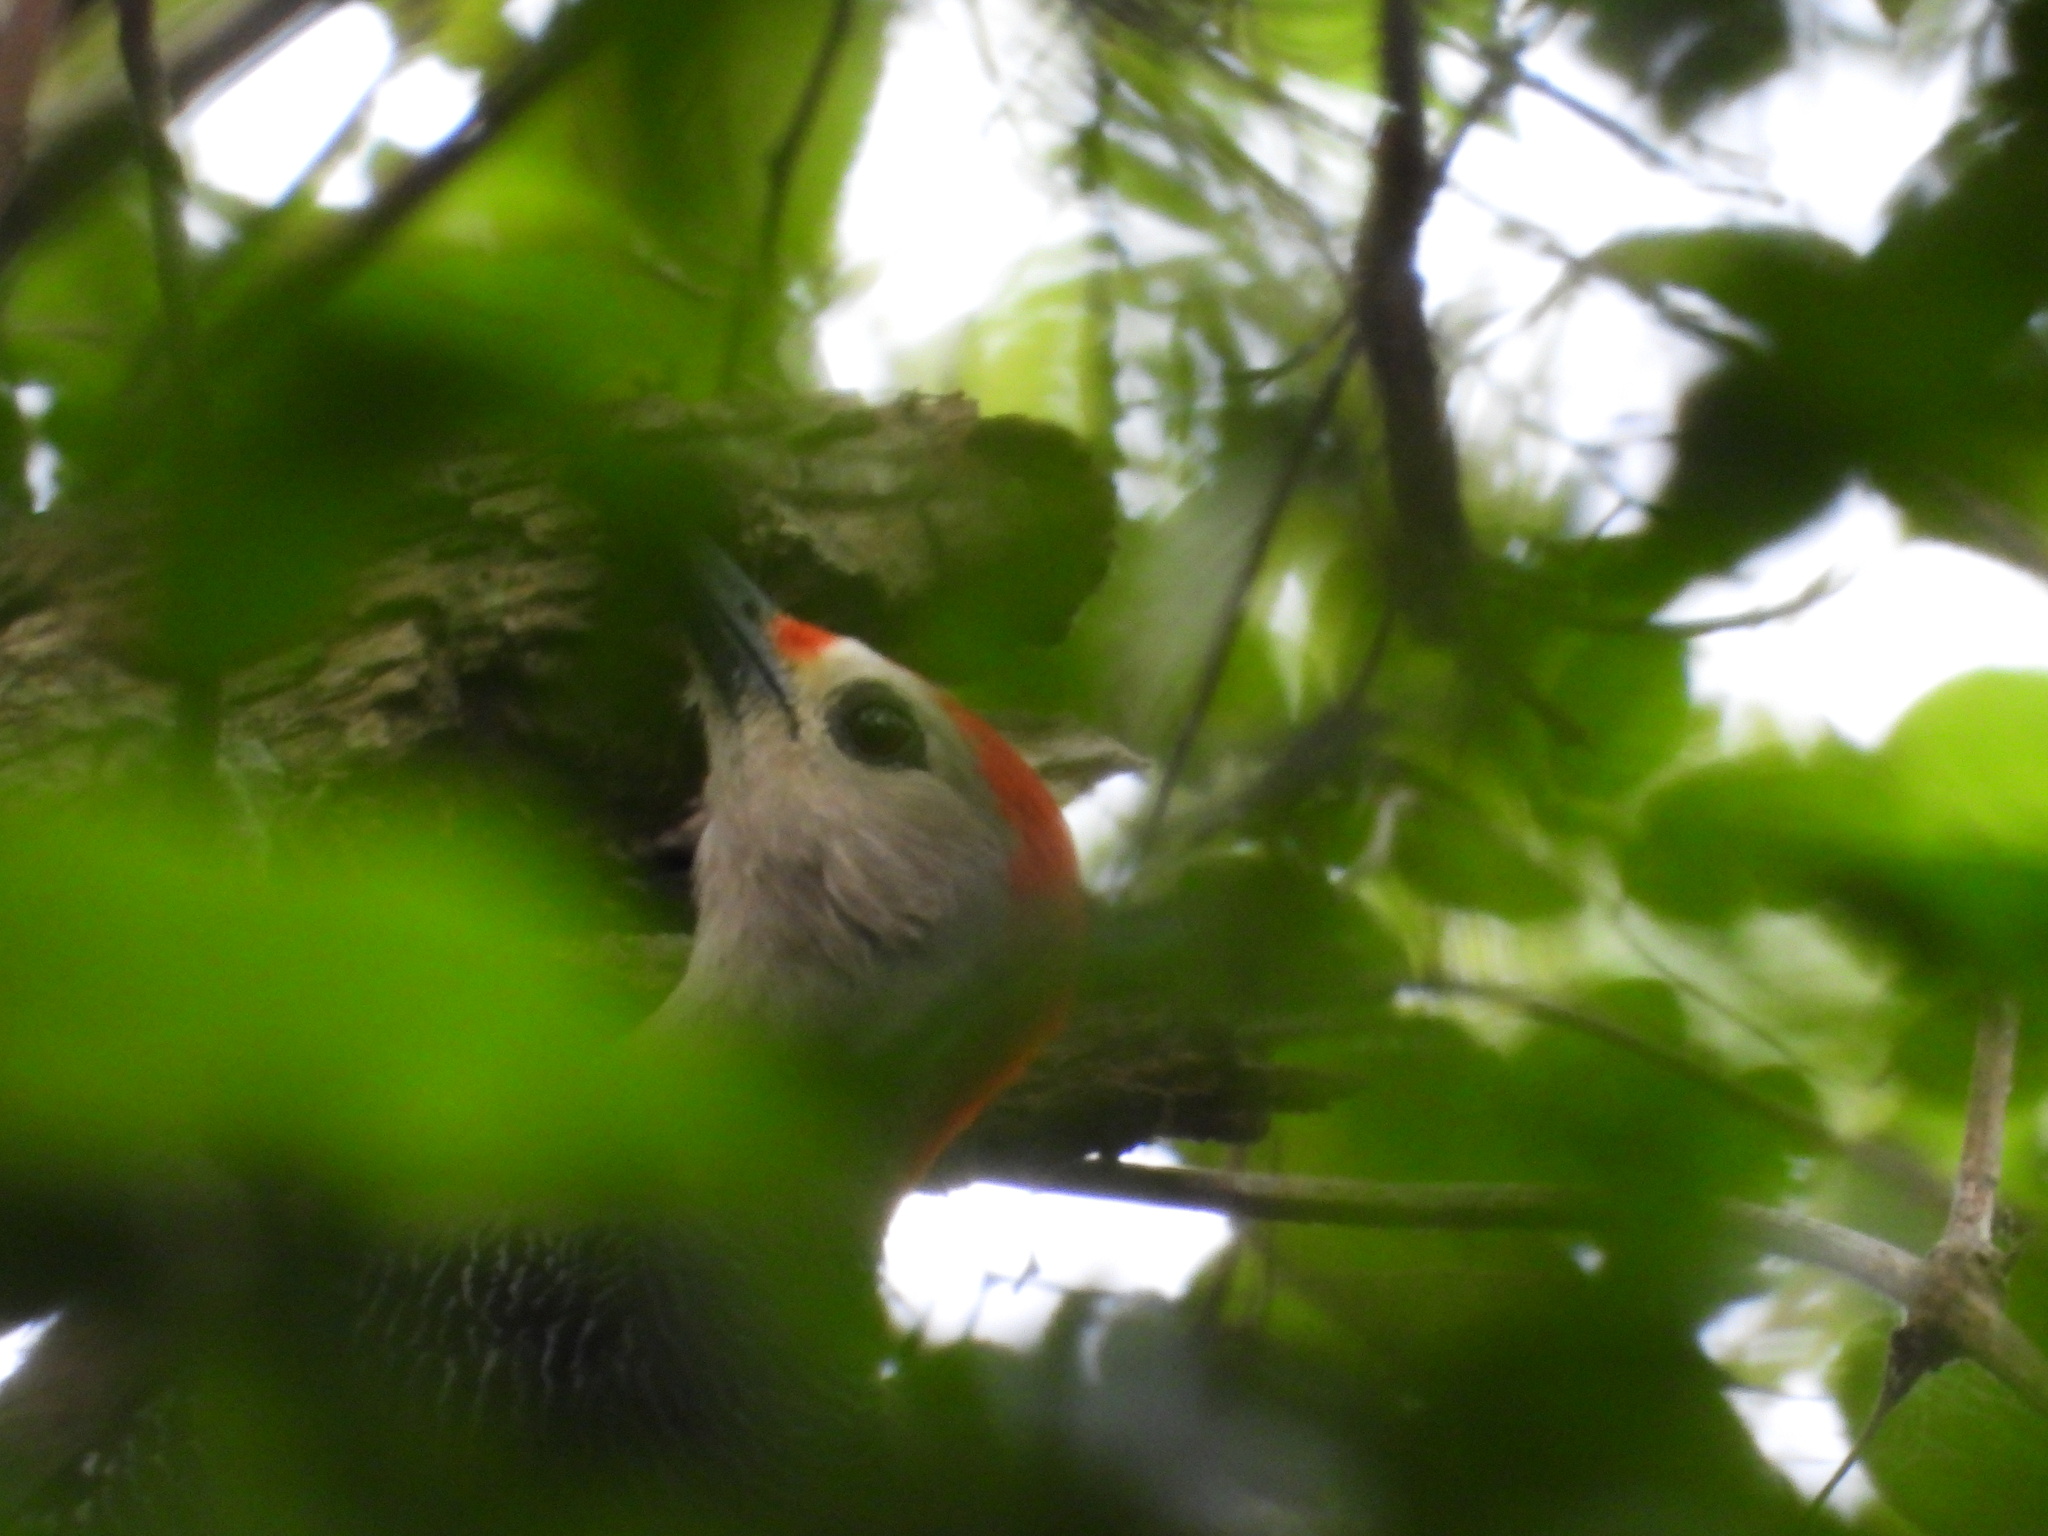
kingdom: Animalia
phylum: Chordata
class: Aves
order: Piciformes
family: Picidae
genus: Melanerpes
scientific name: Melanerpes aurifrons
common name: Golden-fronted woodpecker
